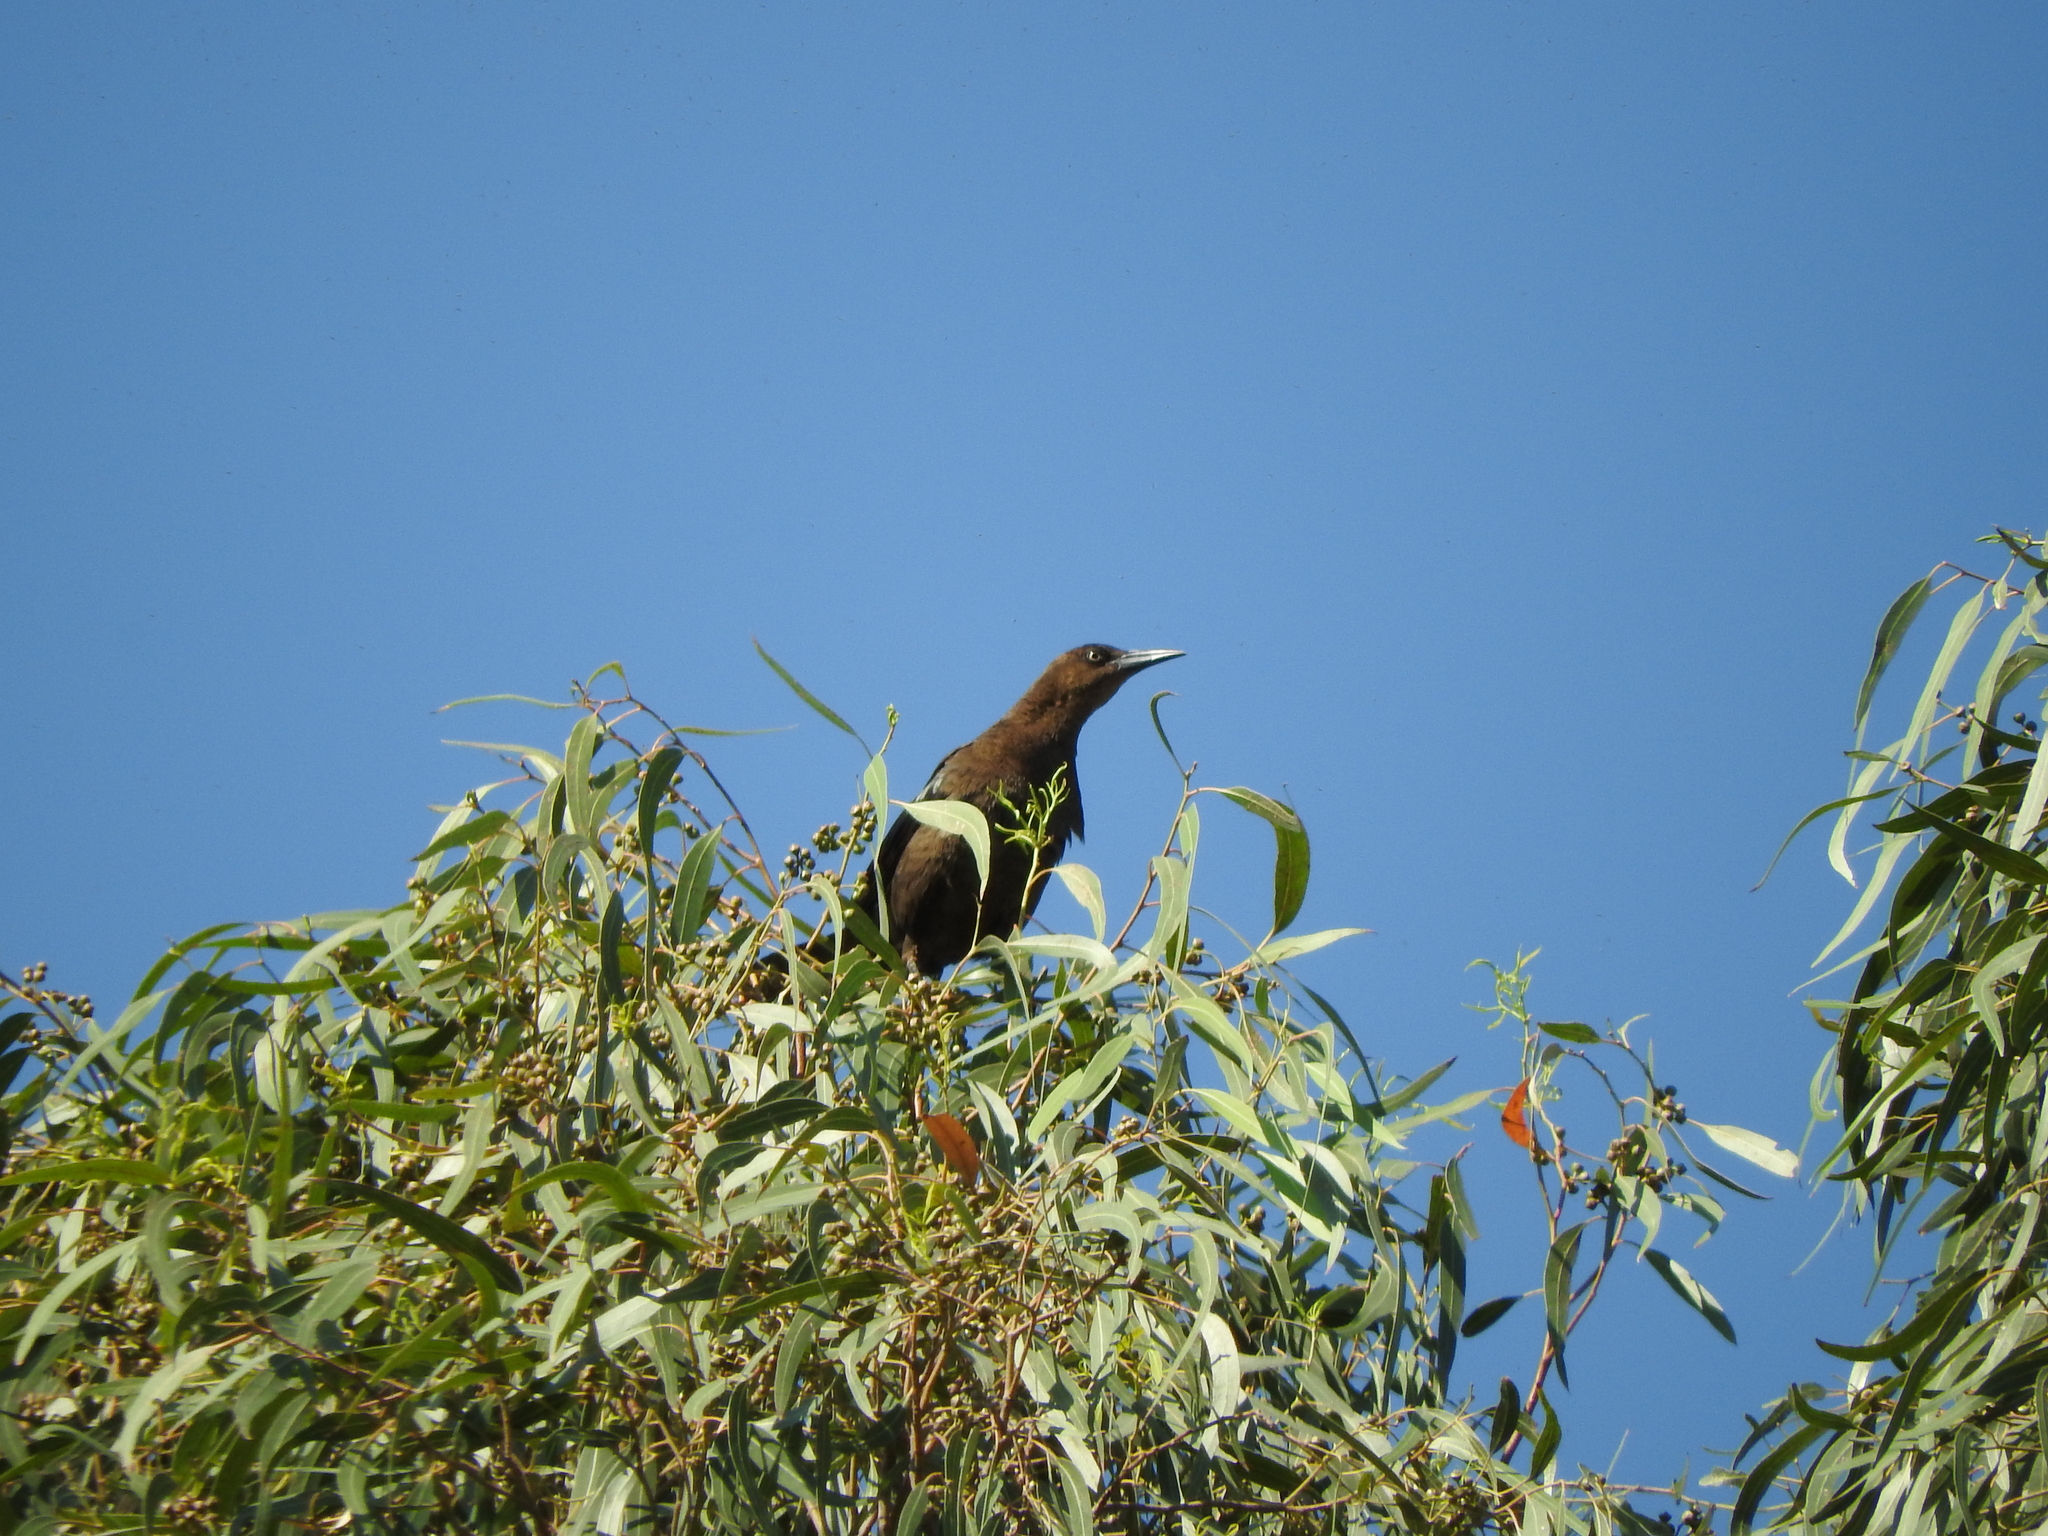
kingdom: Animalia
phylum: Chordata
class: Aves
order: Passeriformes
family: Icteridae
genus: Quiscalus
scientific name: Quiscalus mexicanus
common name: Great-tailed grackle
